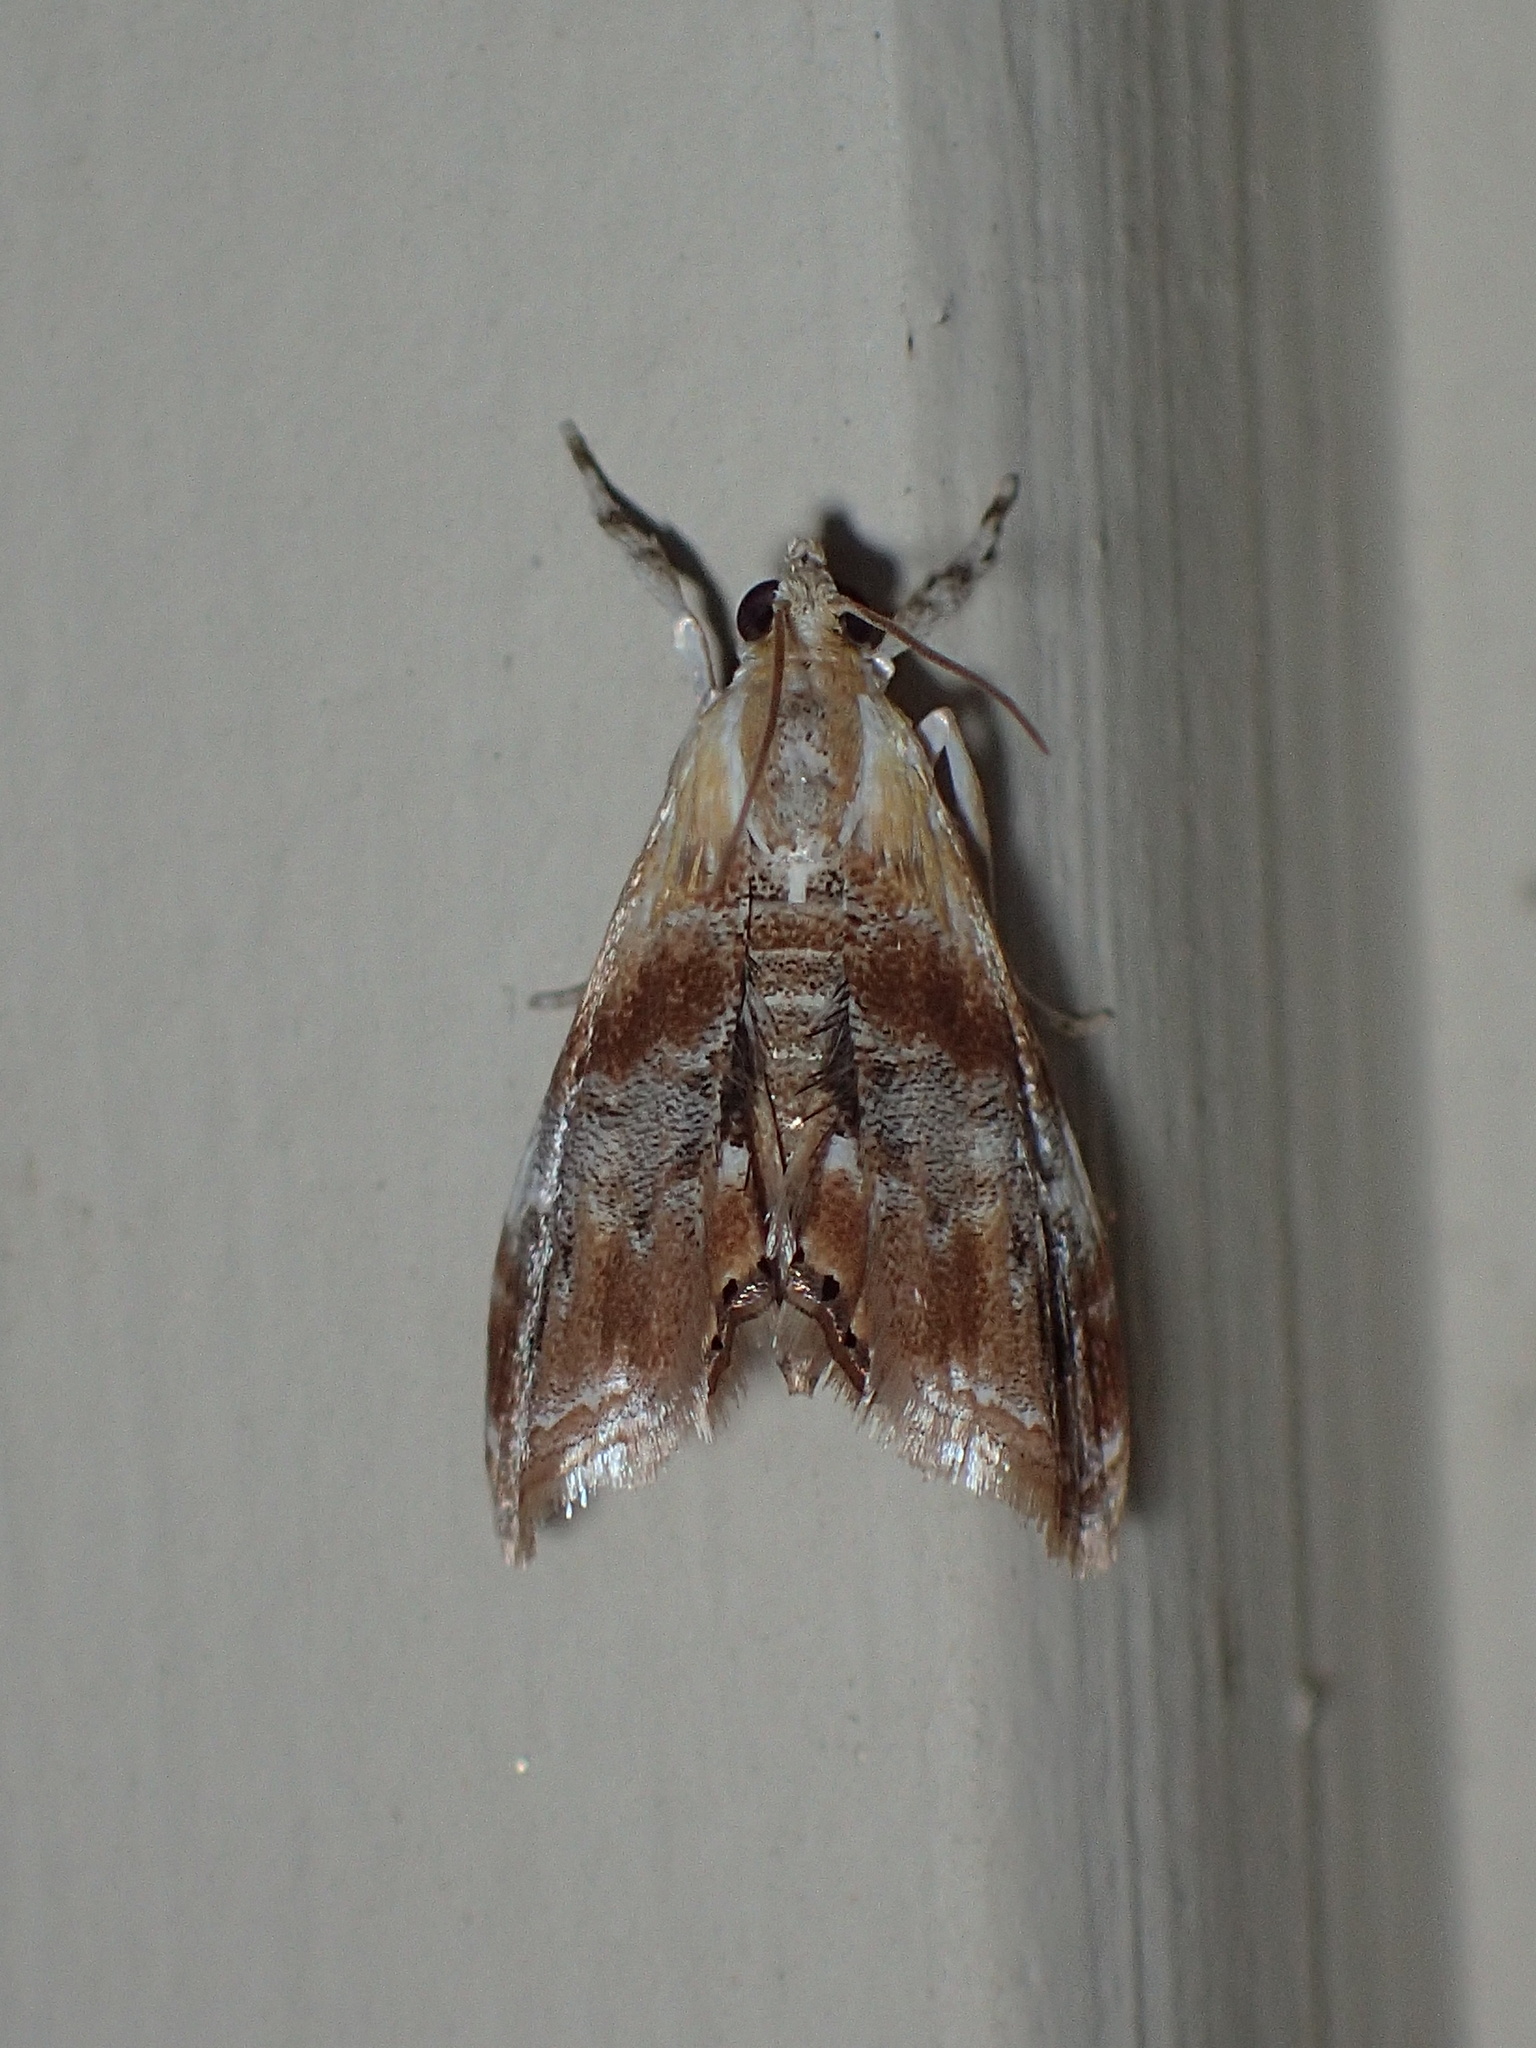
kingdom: Animalia
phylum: Arthropoda
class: Insecta
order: Lepidoptera
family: Crambidae
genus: Dicymolomia
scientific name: Dicymolomia julianalis
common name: Julia's dicymolomia moth
